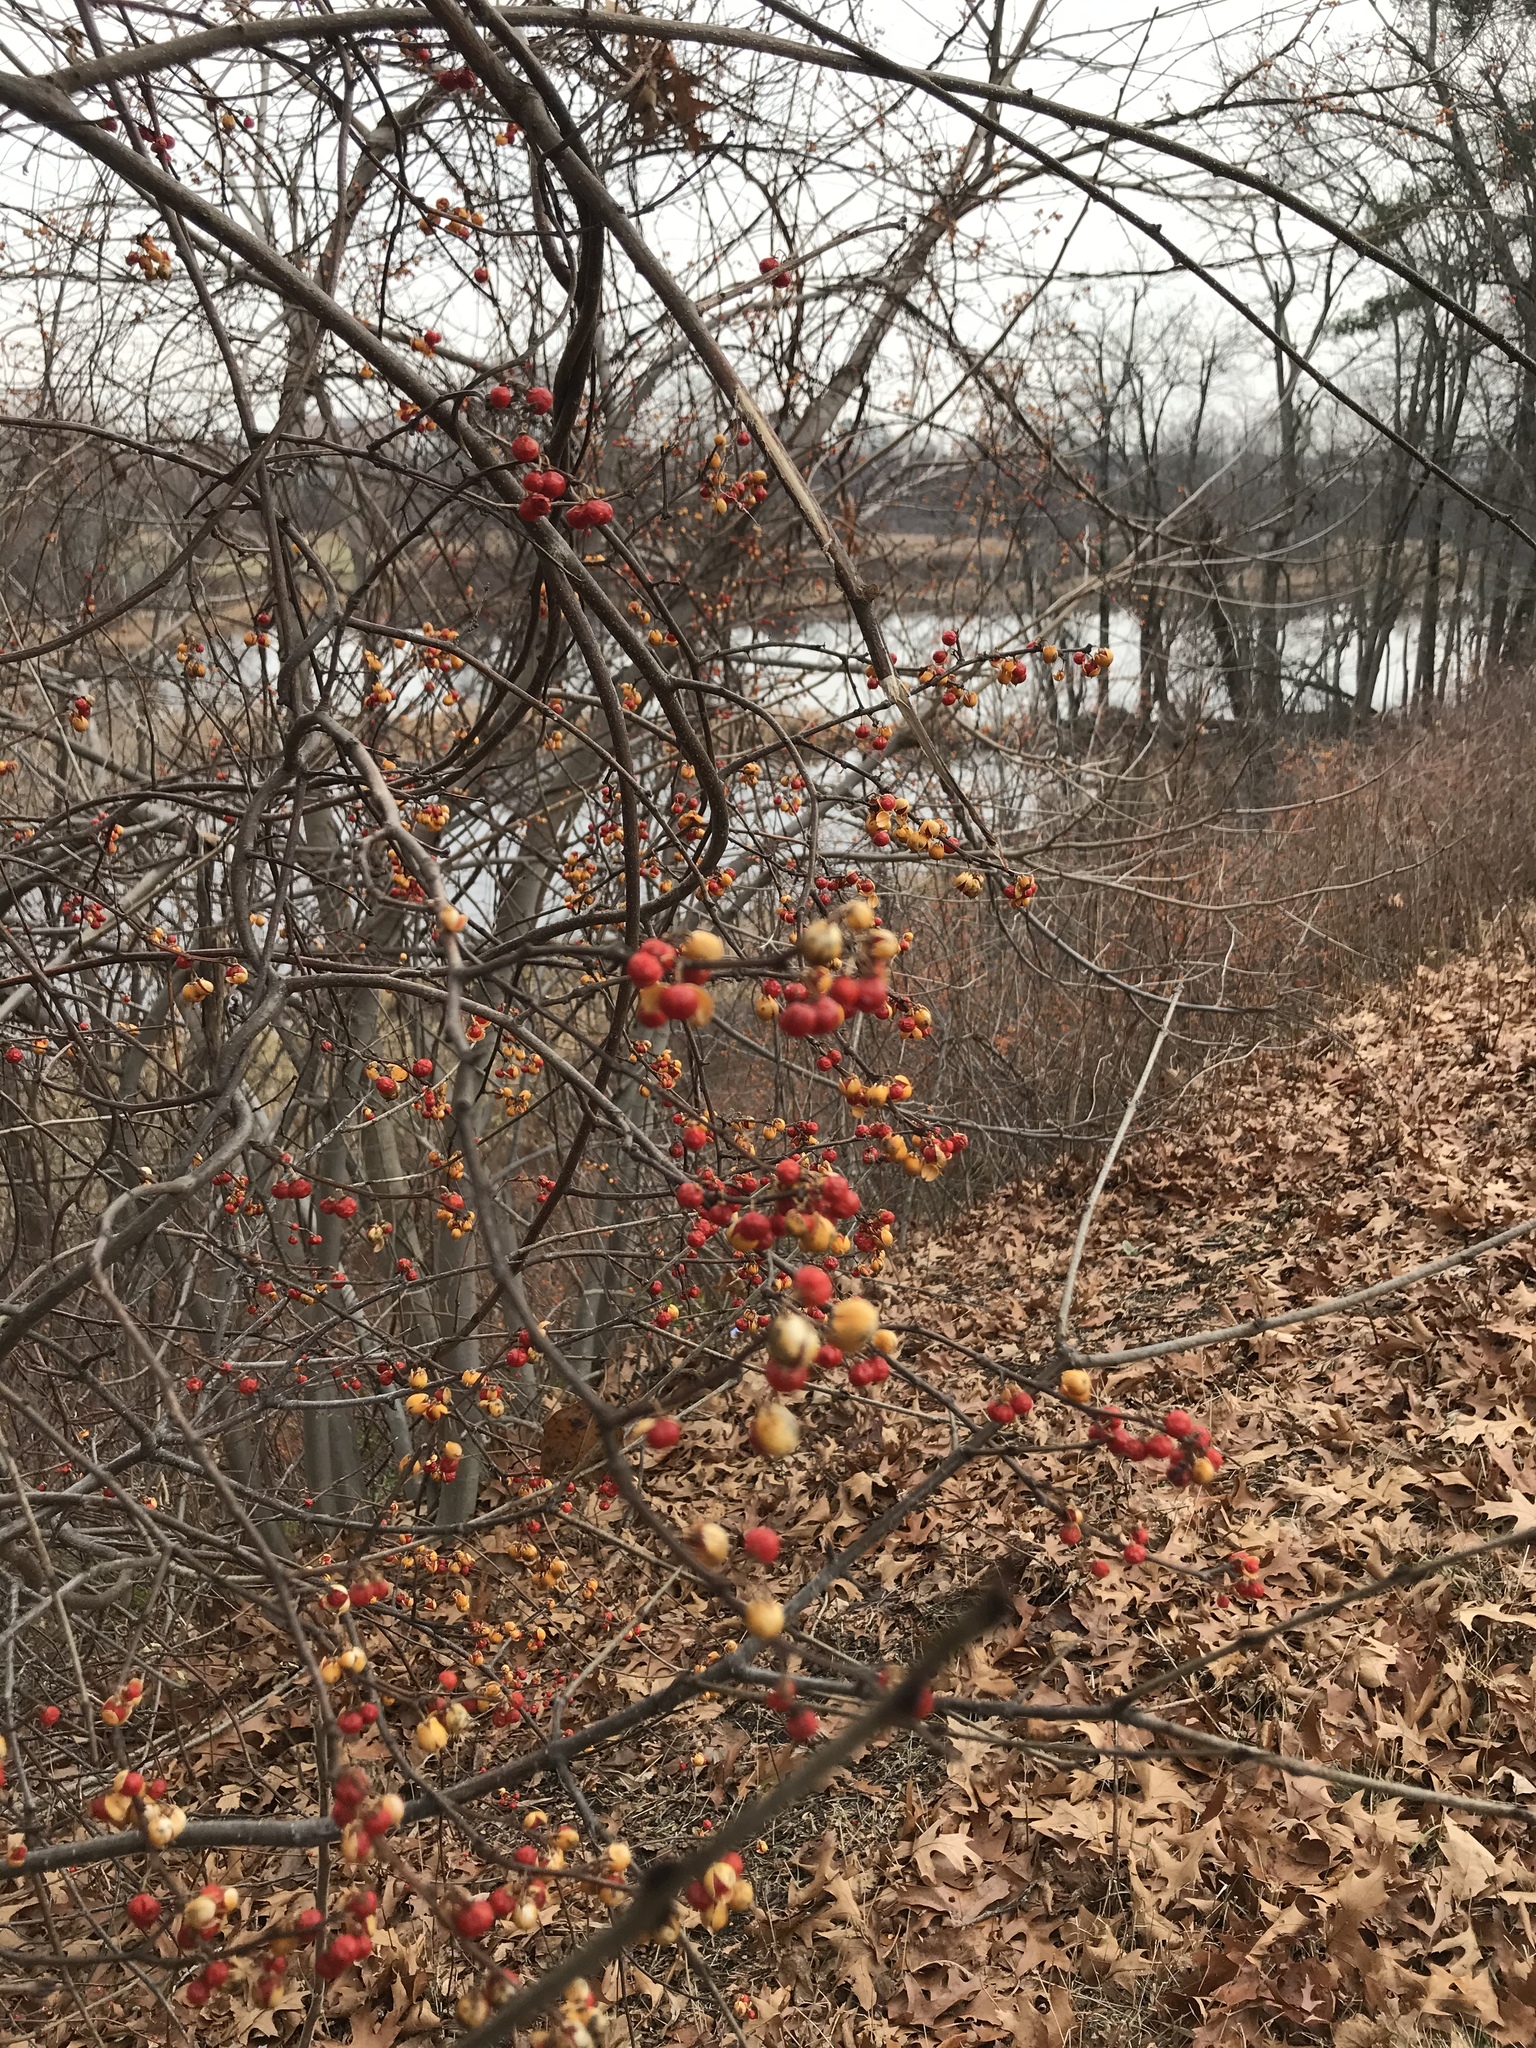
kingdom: Plantae
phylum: Tracheophyta
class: Magnoliopsida
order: Celastrales
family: Celastraceae
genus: Celastrus
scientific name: Celastrus orbiculatus
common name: Oriental bittersweet
